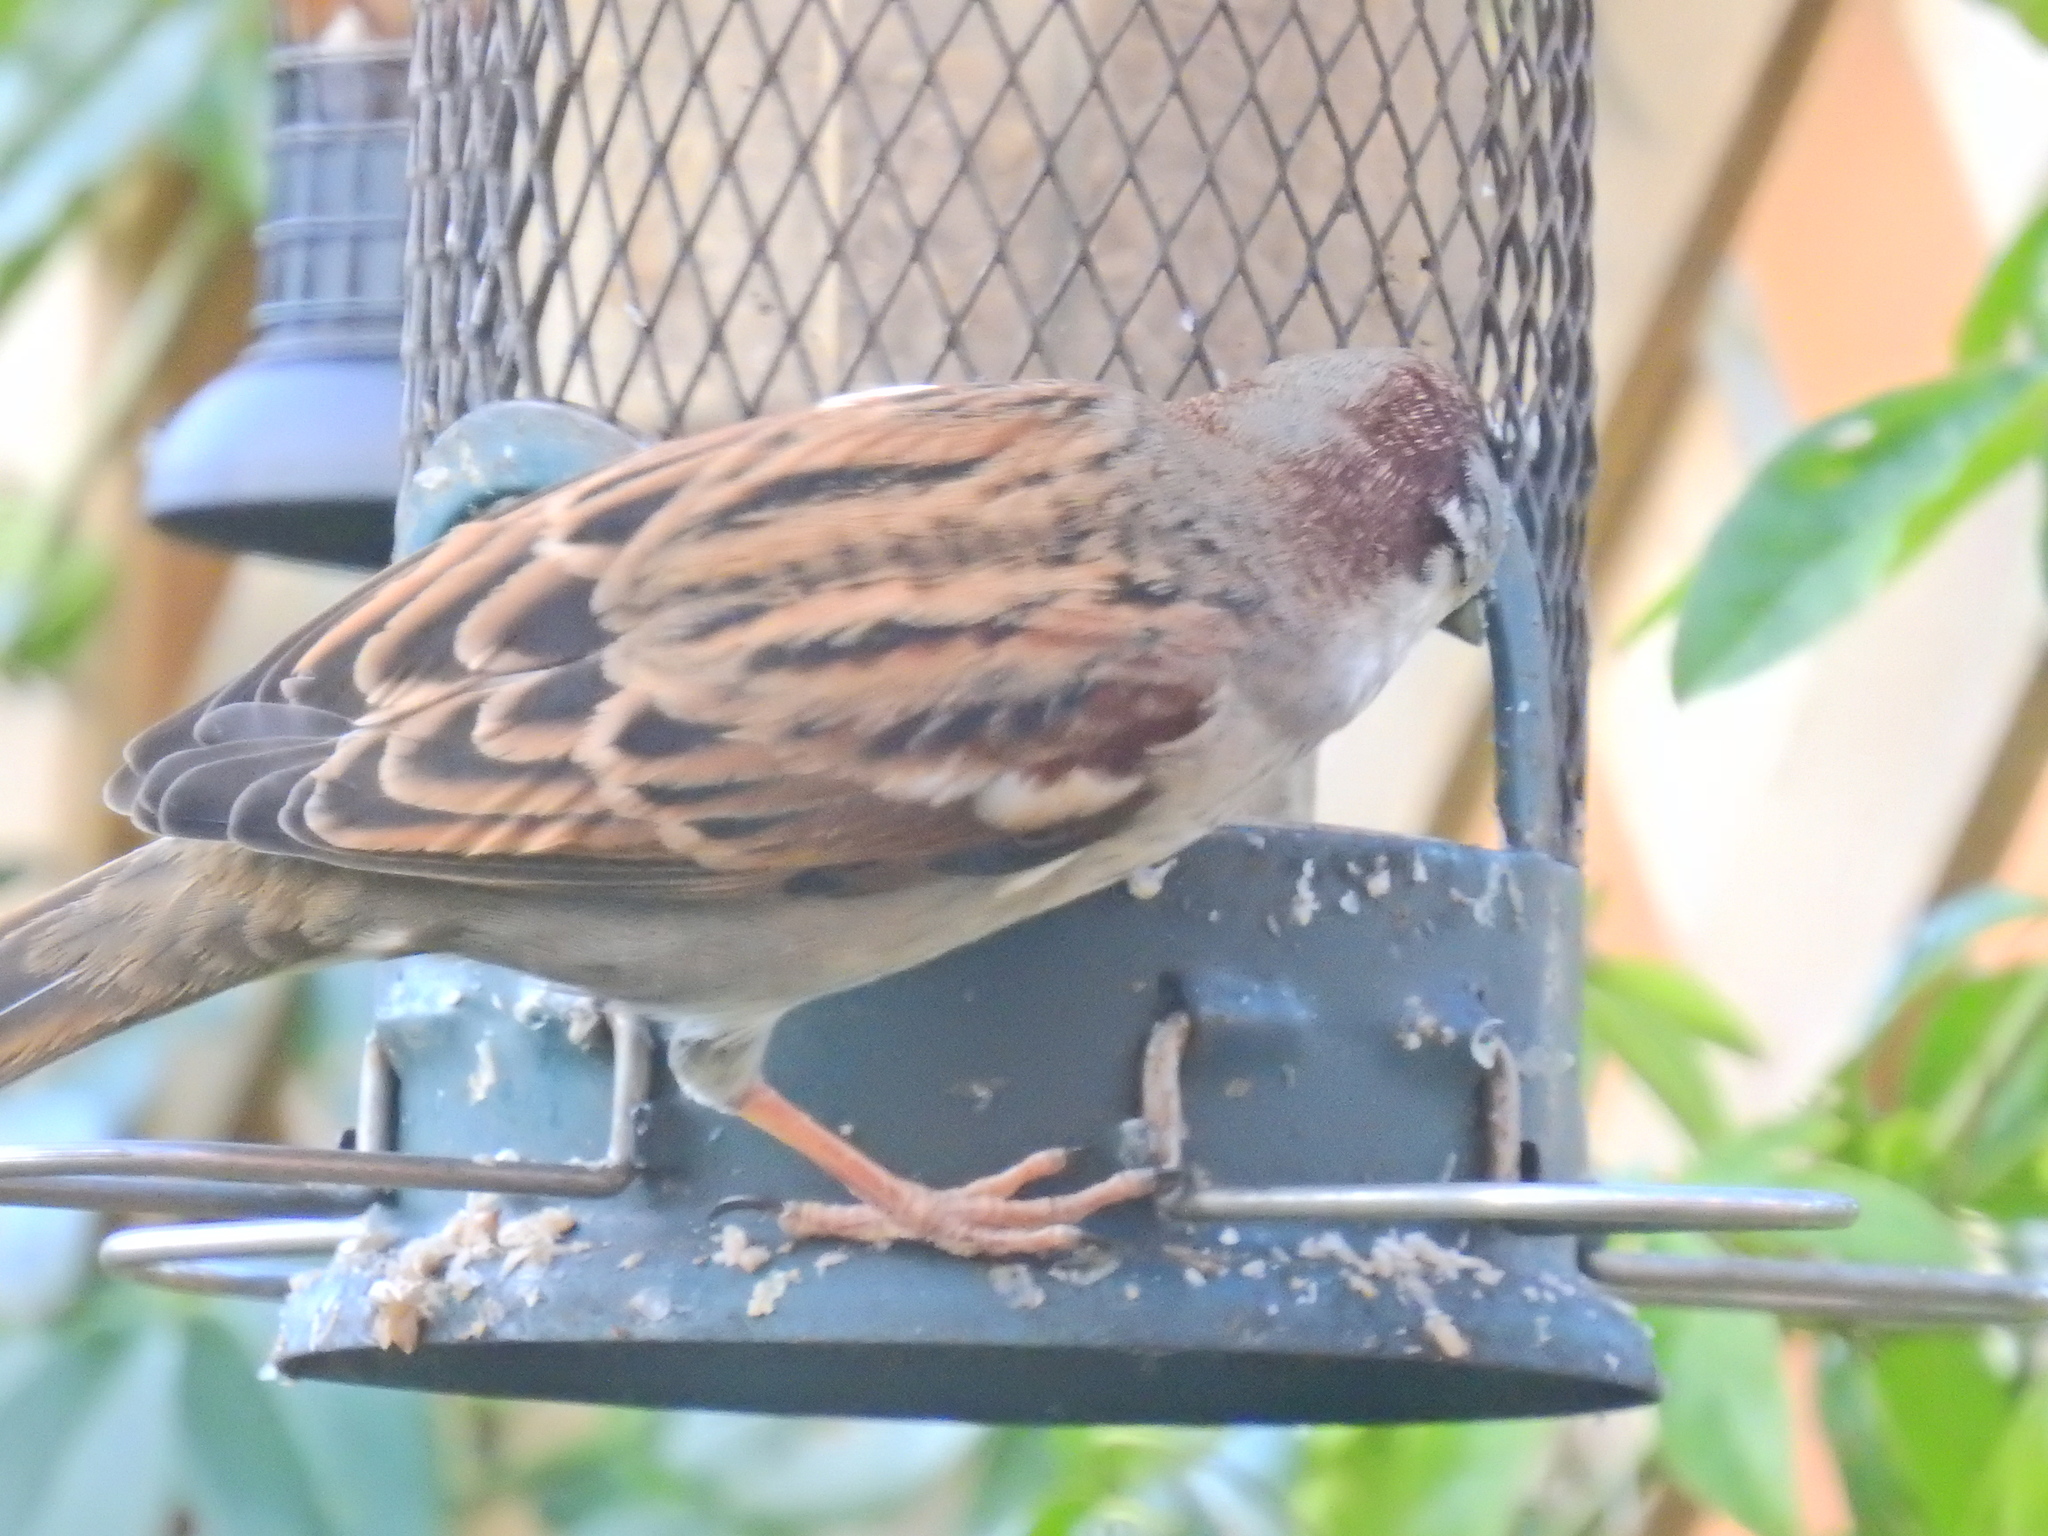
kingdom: Animalia
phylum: Chordata
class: Aves
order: Passeriformes
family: Passeridae
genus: Passer
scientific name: Passer domesticus
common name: House sparrow
